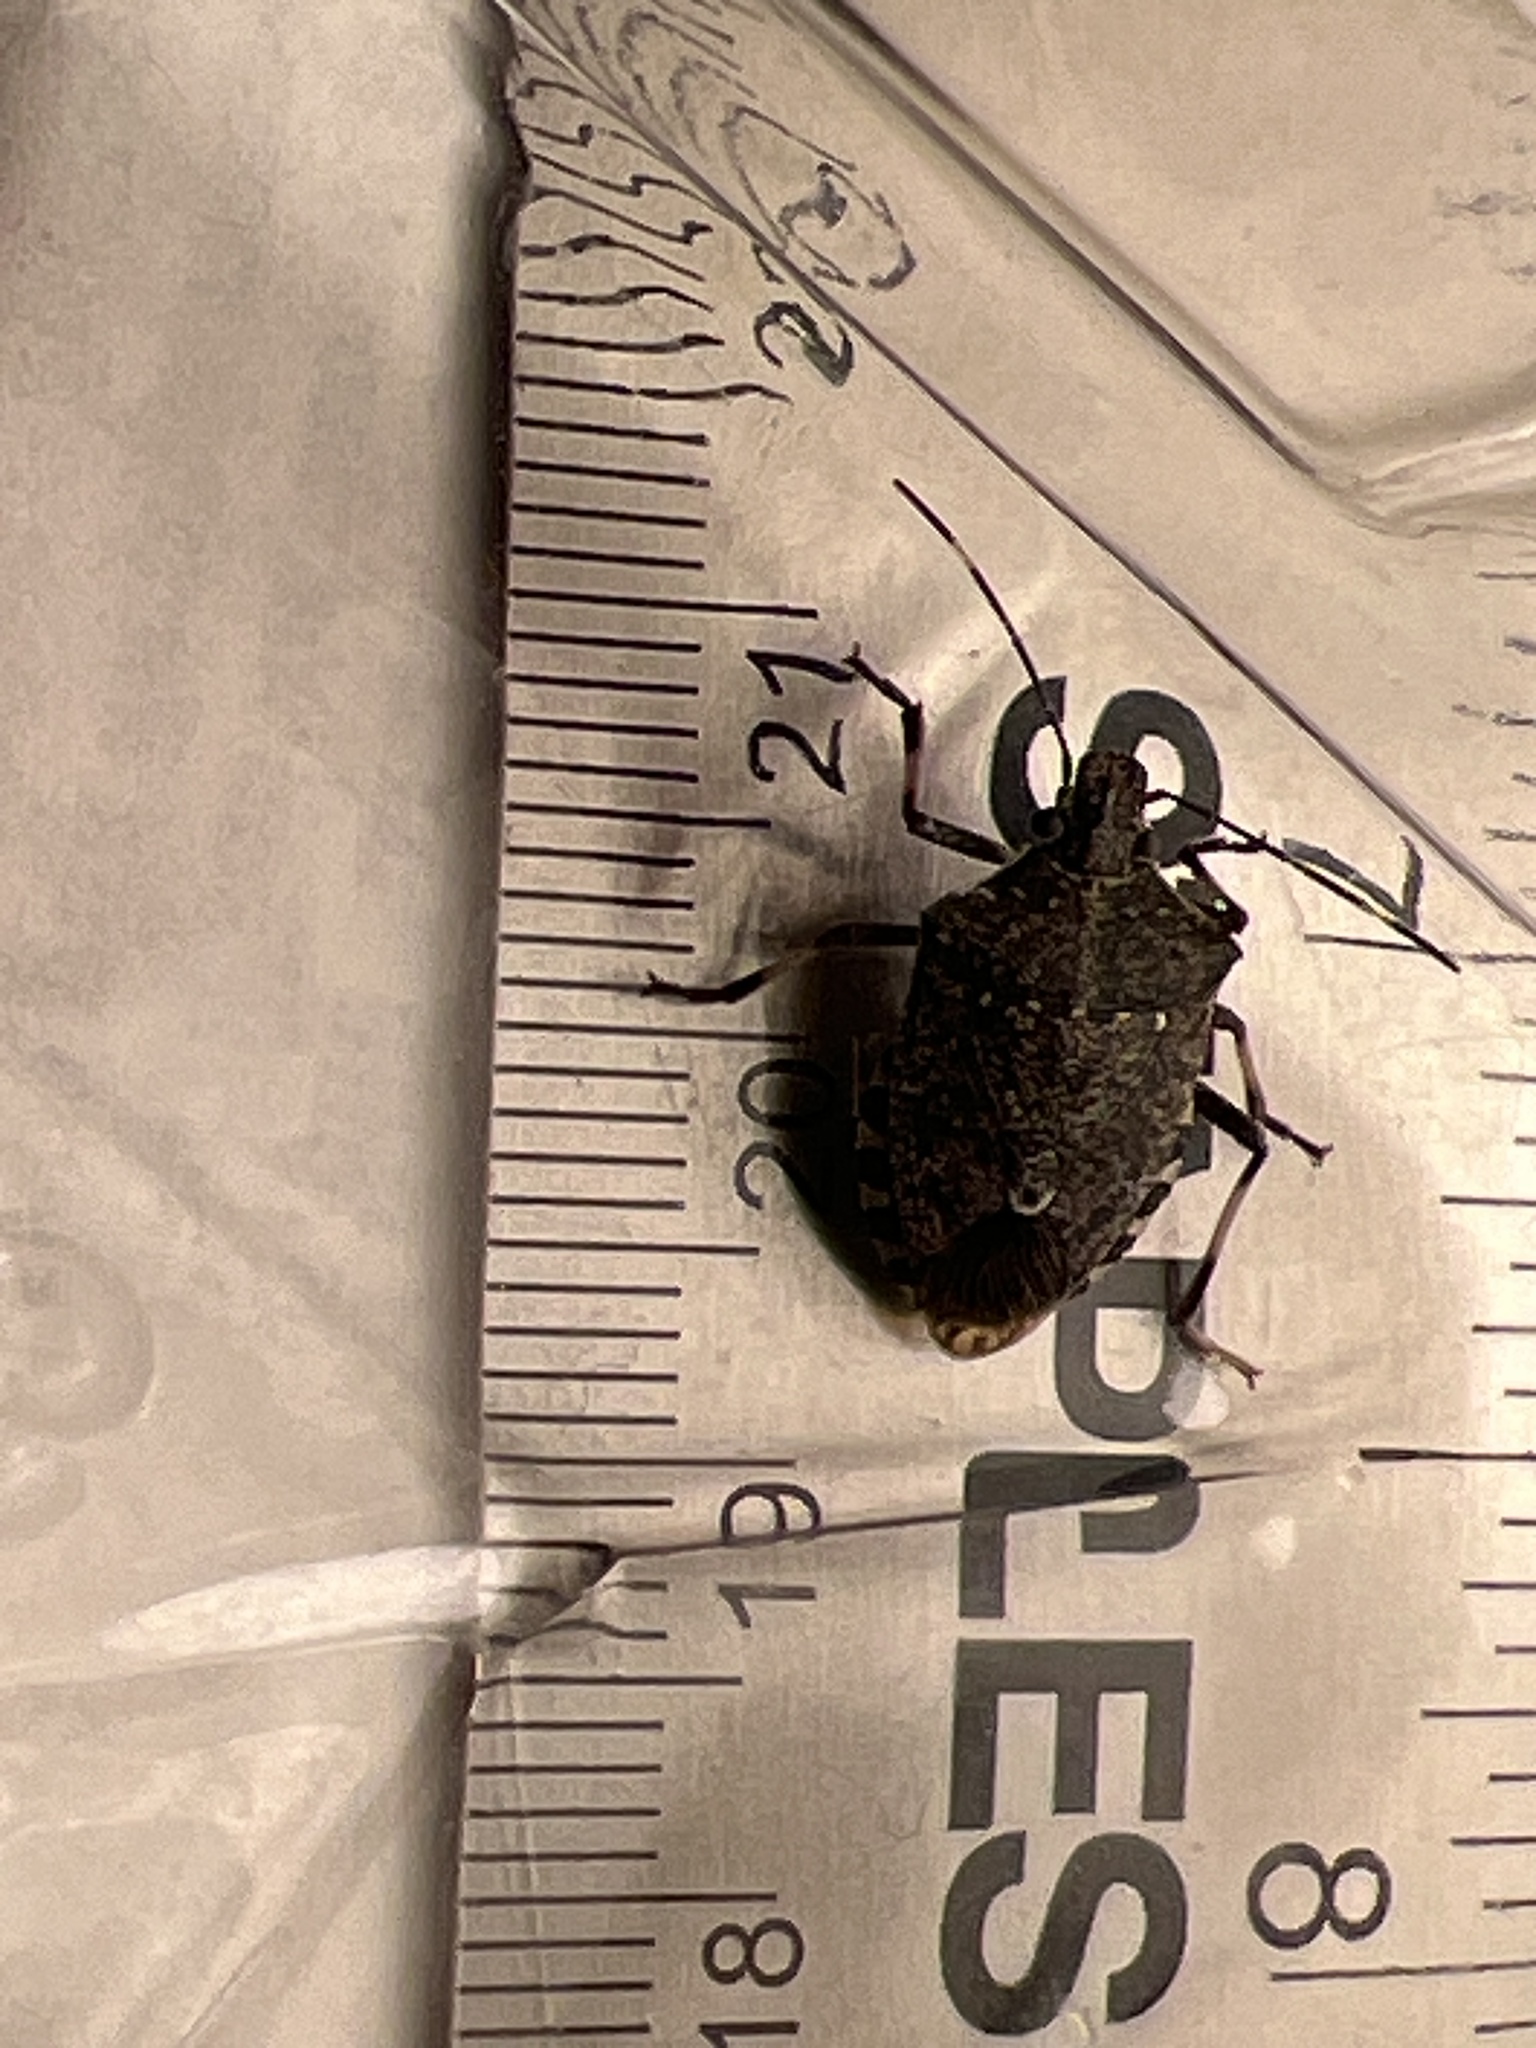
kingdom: Animalia
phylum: Arthropoda
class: Insecta
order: Hemiptera
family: Pentatomidae
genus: Halyomorpha
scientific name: Halyomorpha halys
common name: Brown marmorated stink bug
